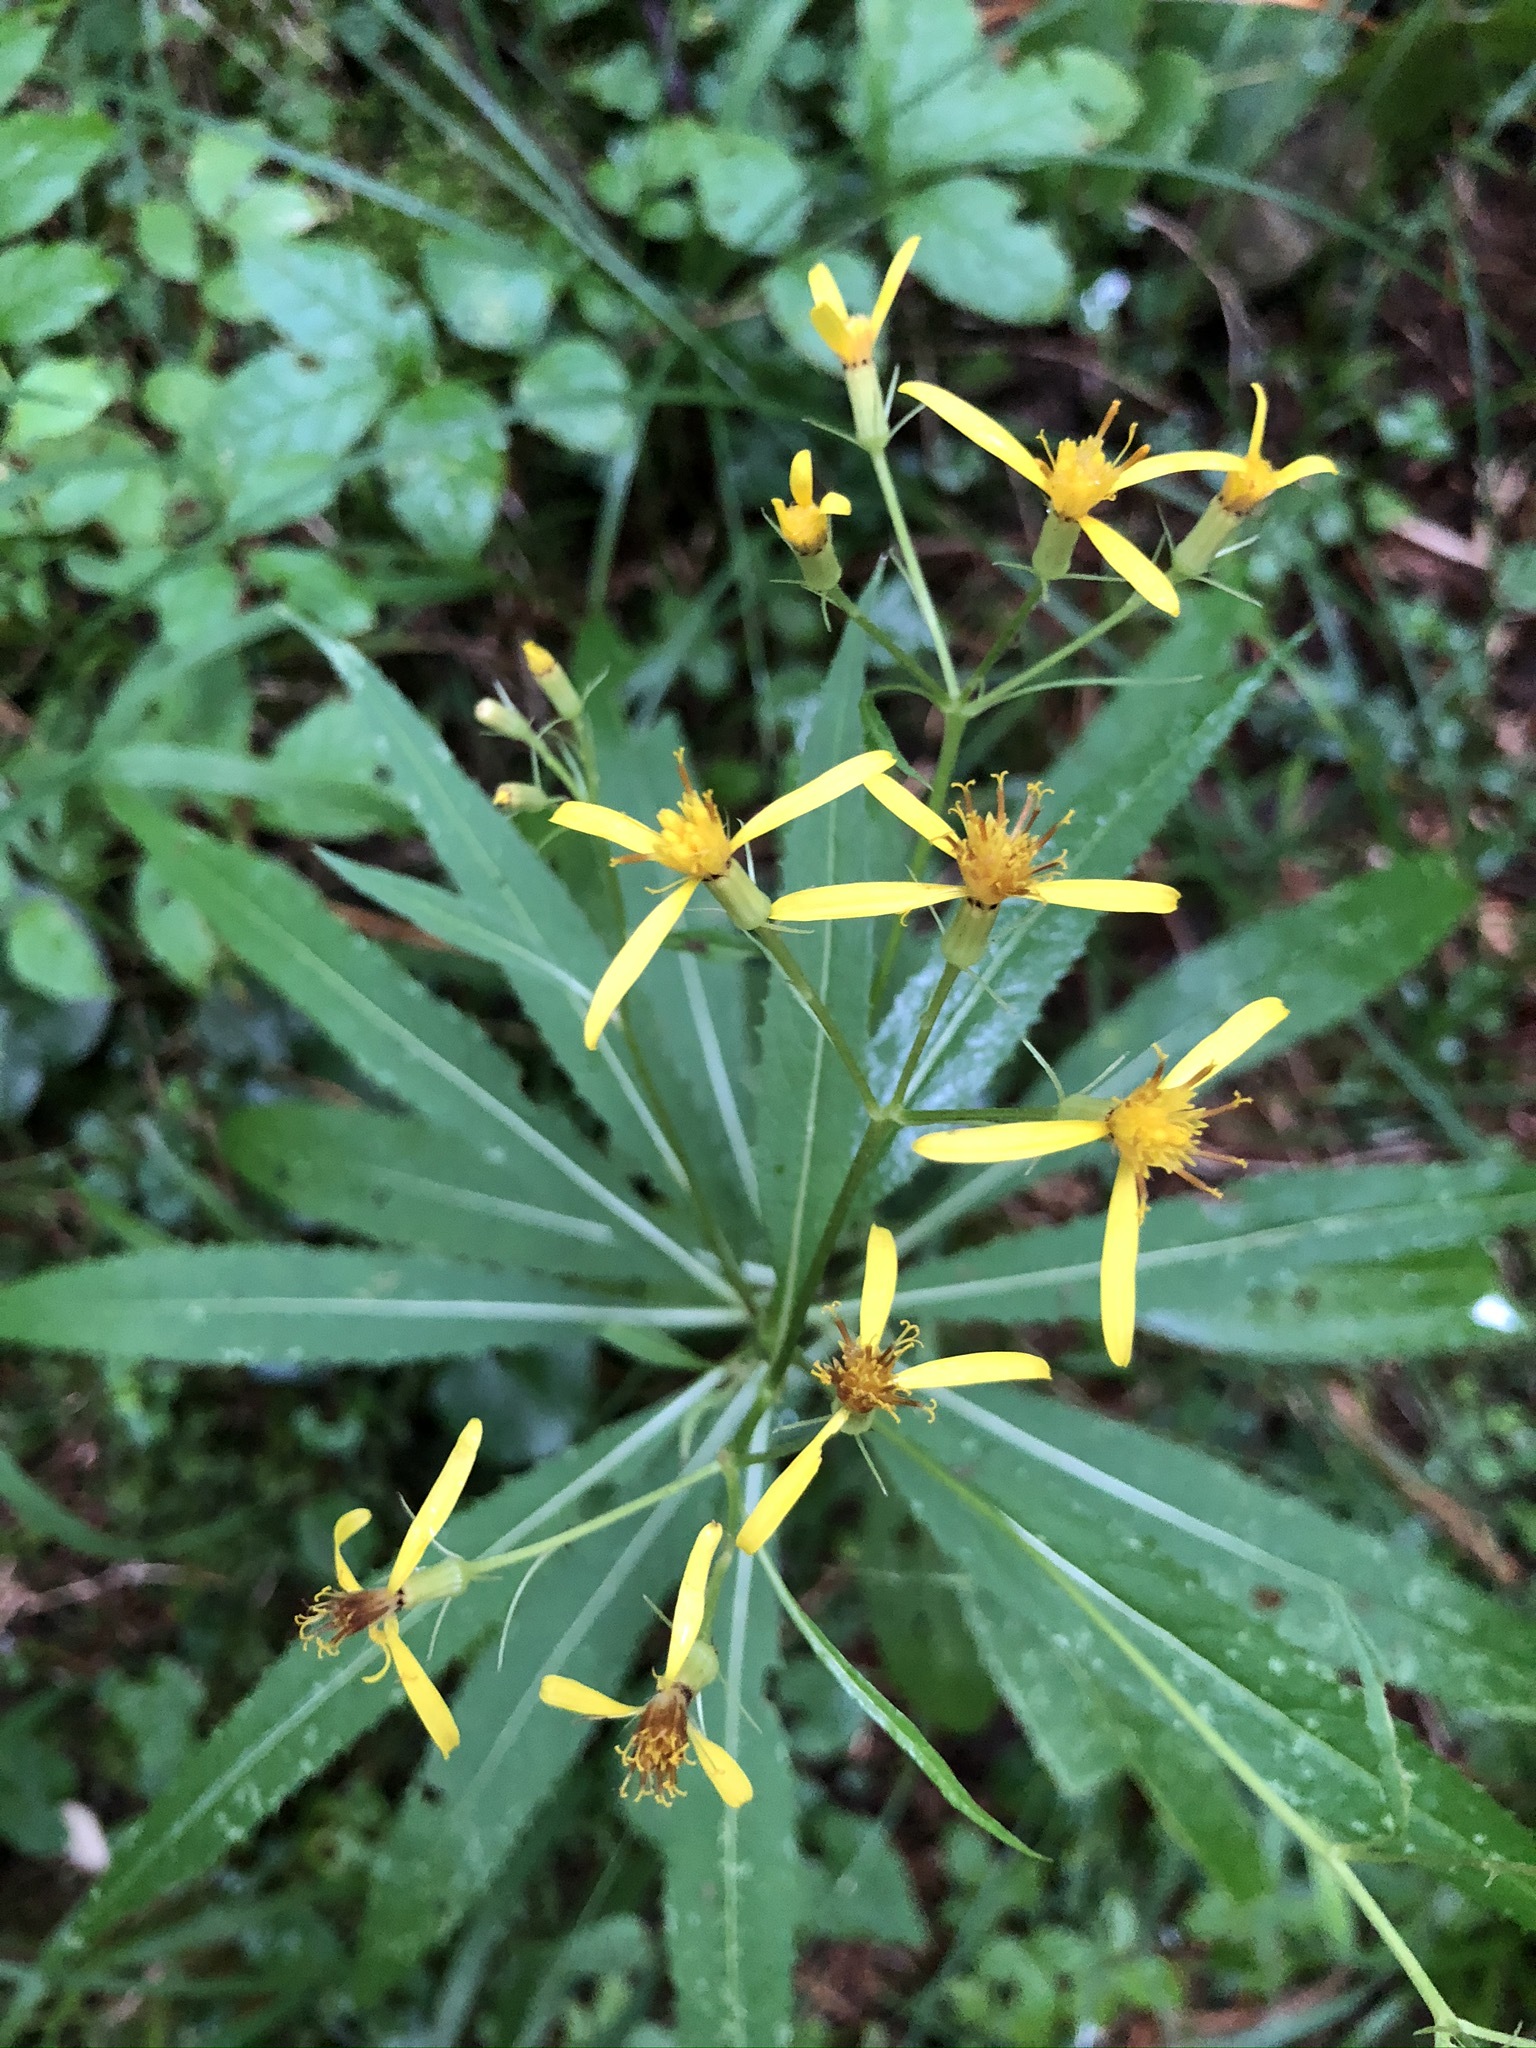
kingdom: Plantae
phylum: Tracheophyta
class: Magnoliopsida
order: Asterales
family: Asteraceae
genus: Senecio
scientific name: Senecio ovatus
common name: Wood ragwort
